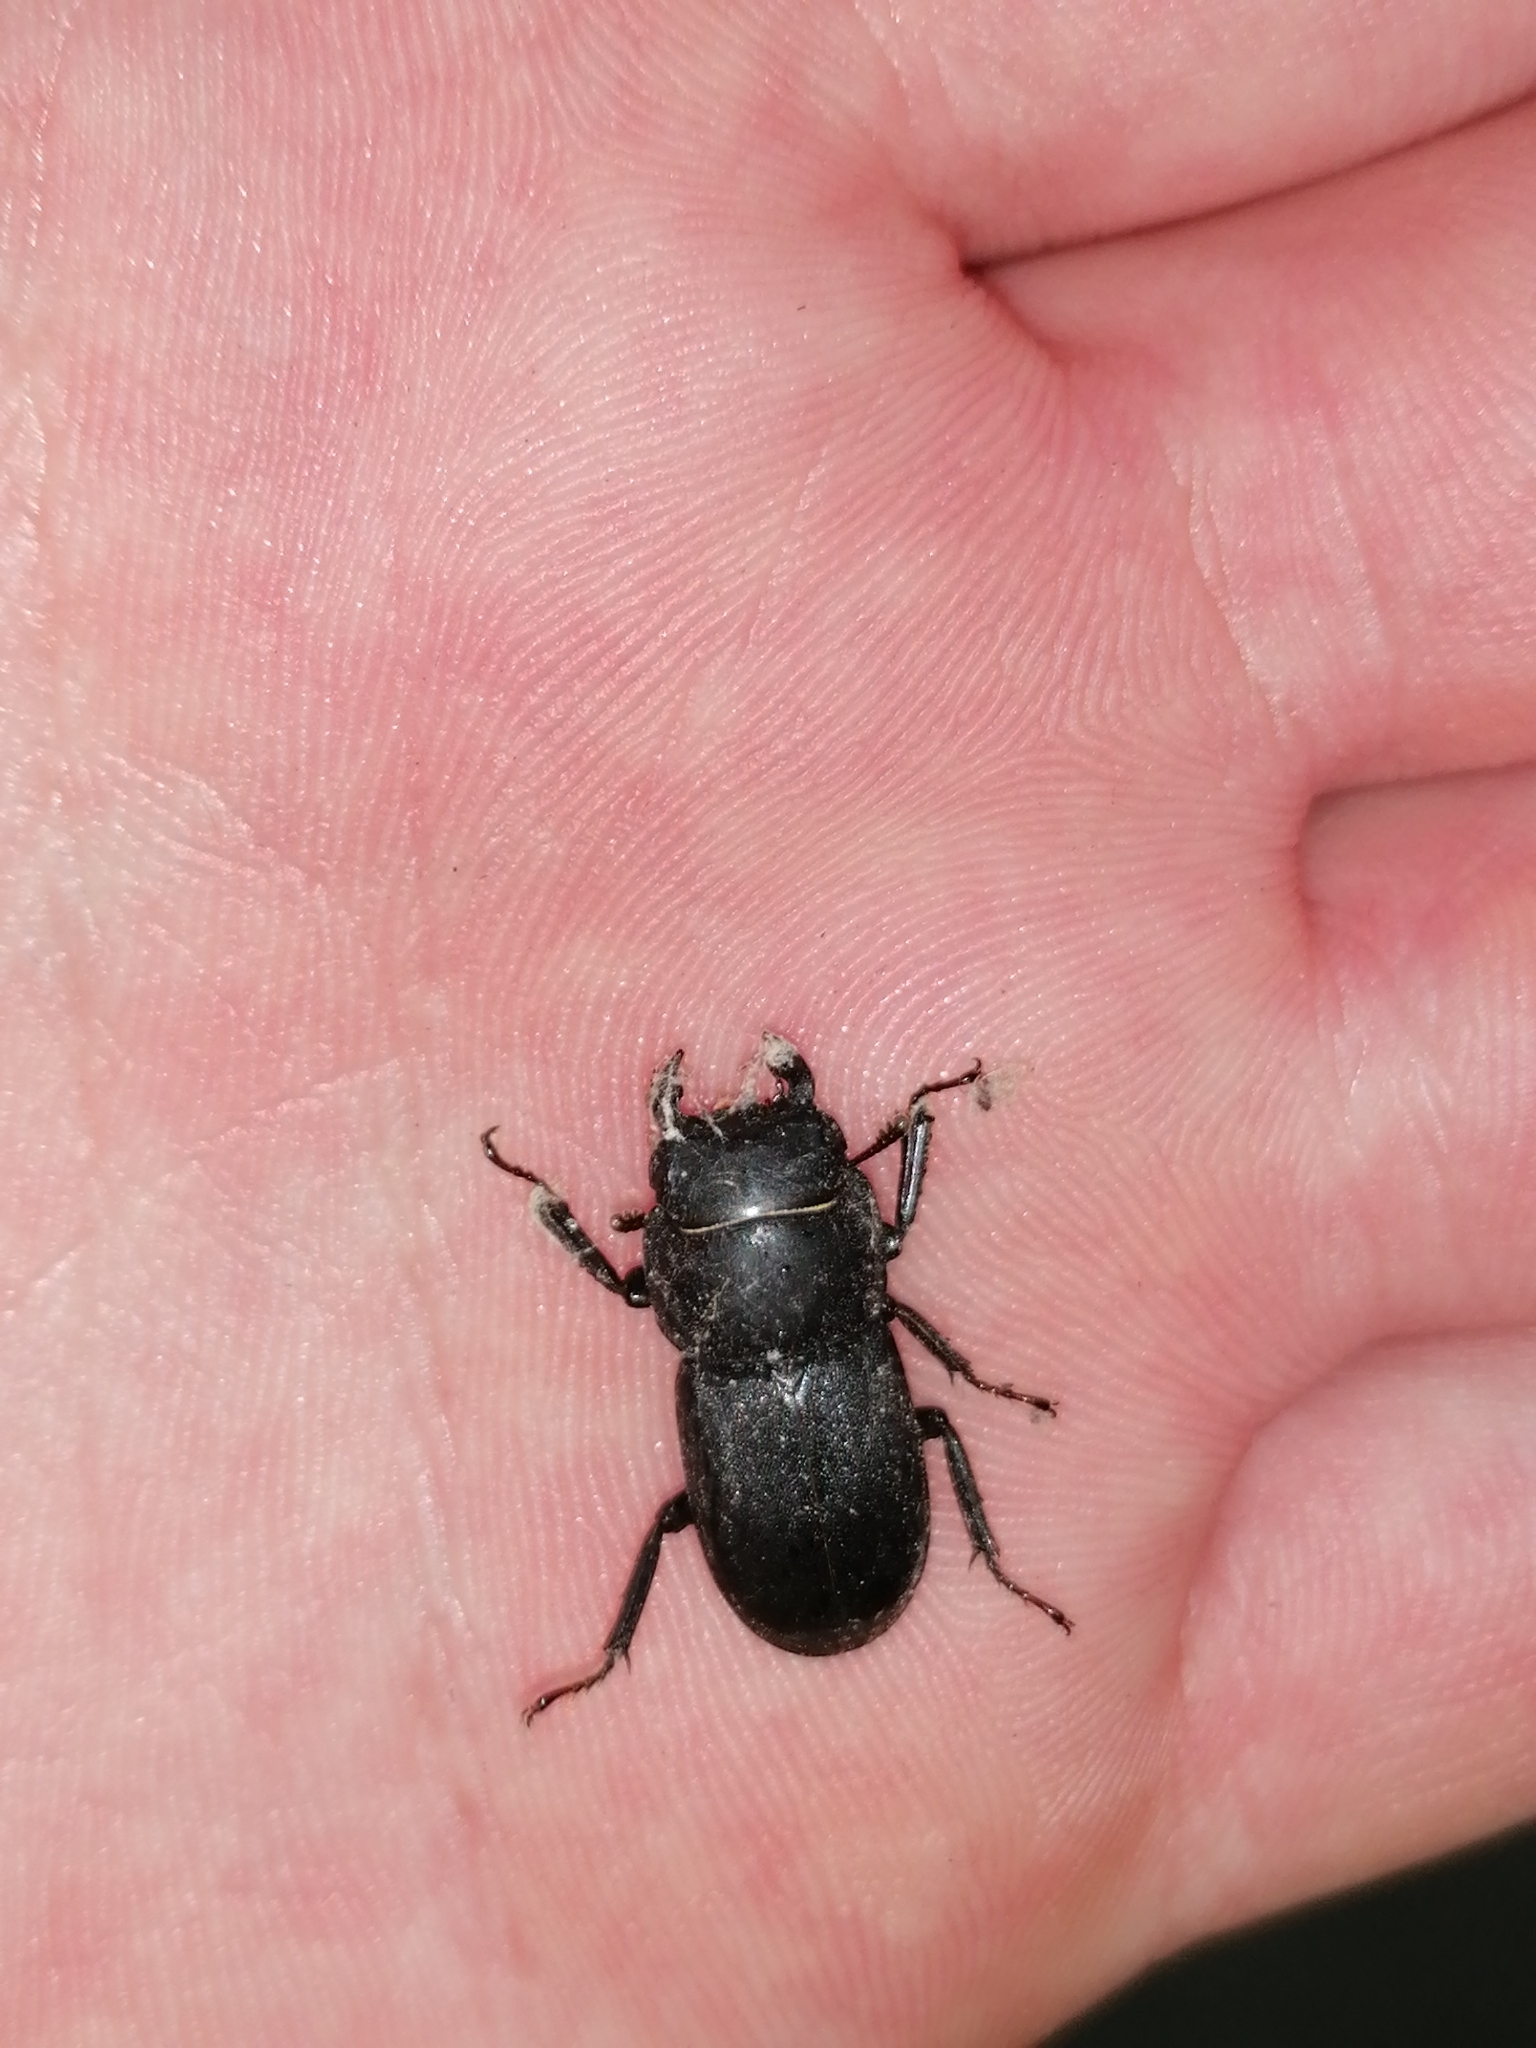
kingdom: Animalia
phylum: Arthropoda
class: Insecta
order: Coleoptera
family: Lucanidae
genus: Dorcus
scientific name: Dorcus parallelipipedus
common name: Lesser stag beetle
